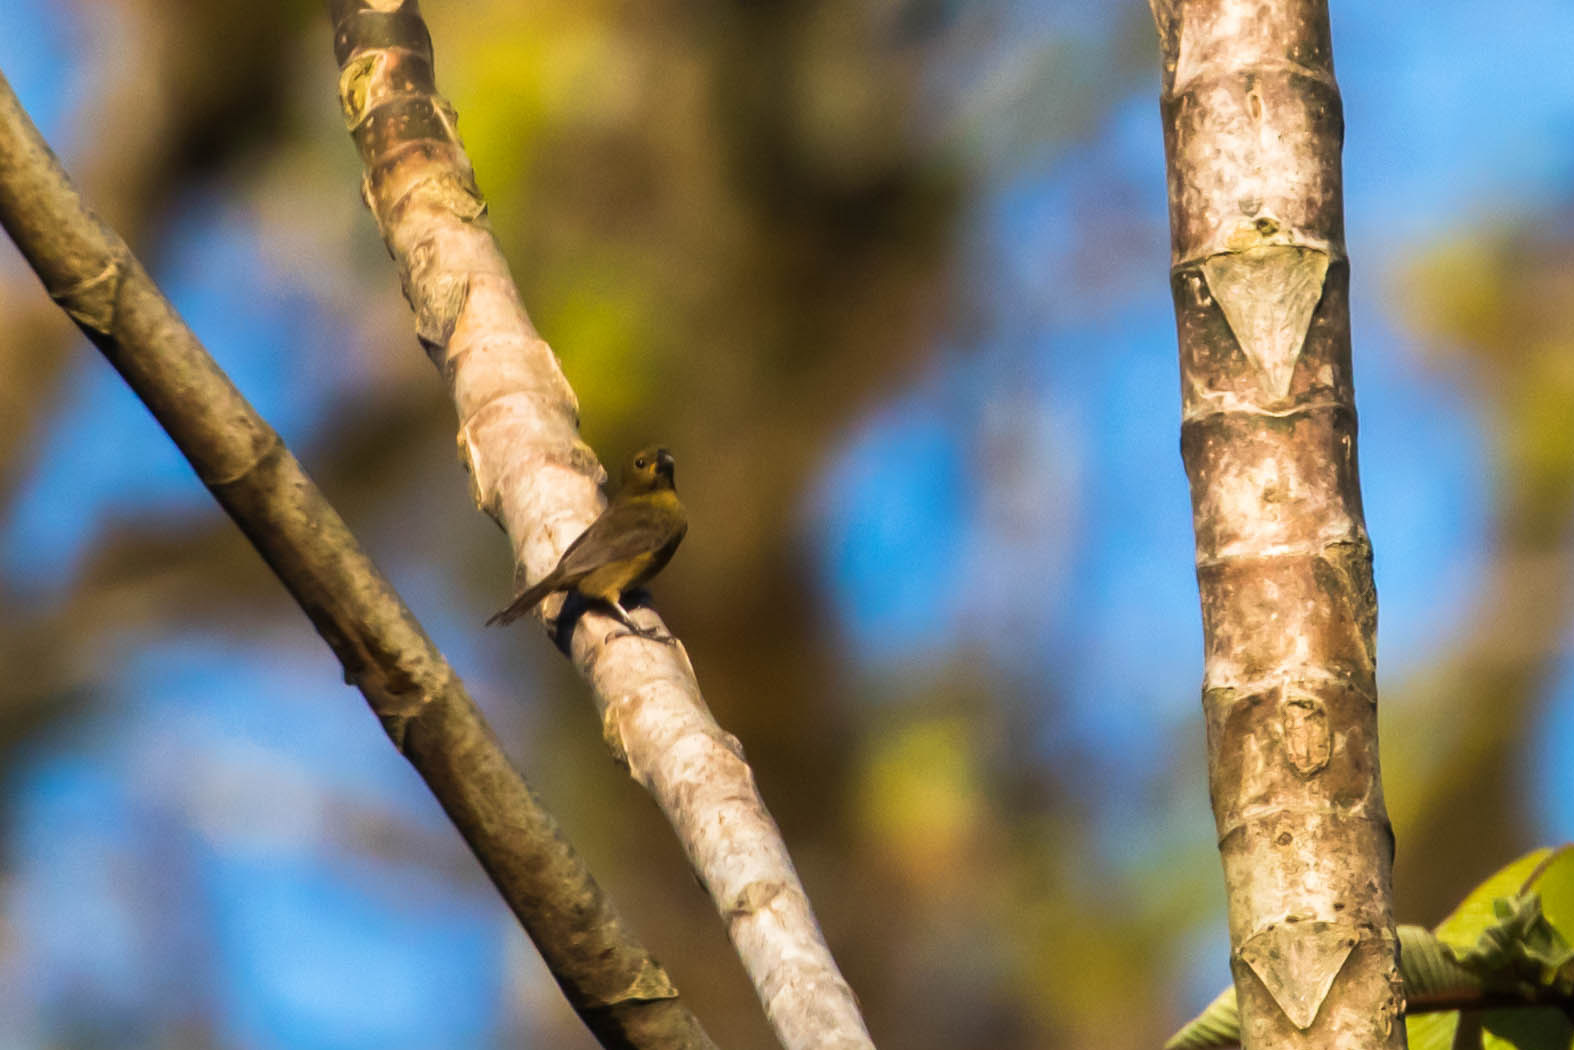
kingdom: Animalia
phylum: Chordata
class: Aves
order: Passeriformes
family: Thraupidae
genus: Sporophila
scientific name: Sporophila corvina
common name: Variable seedeater
